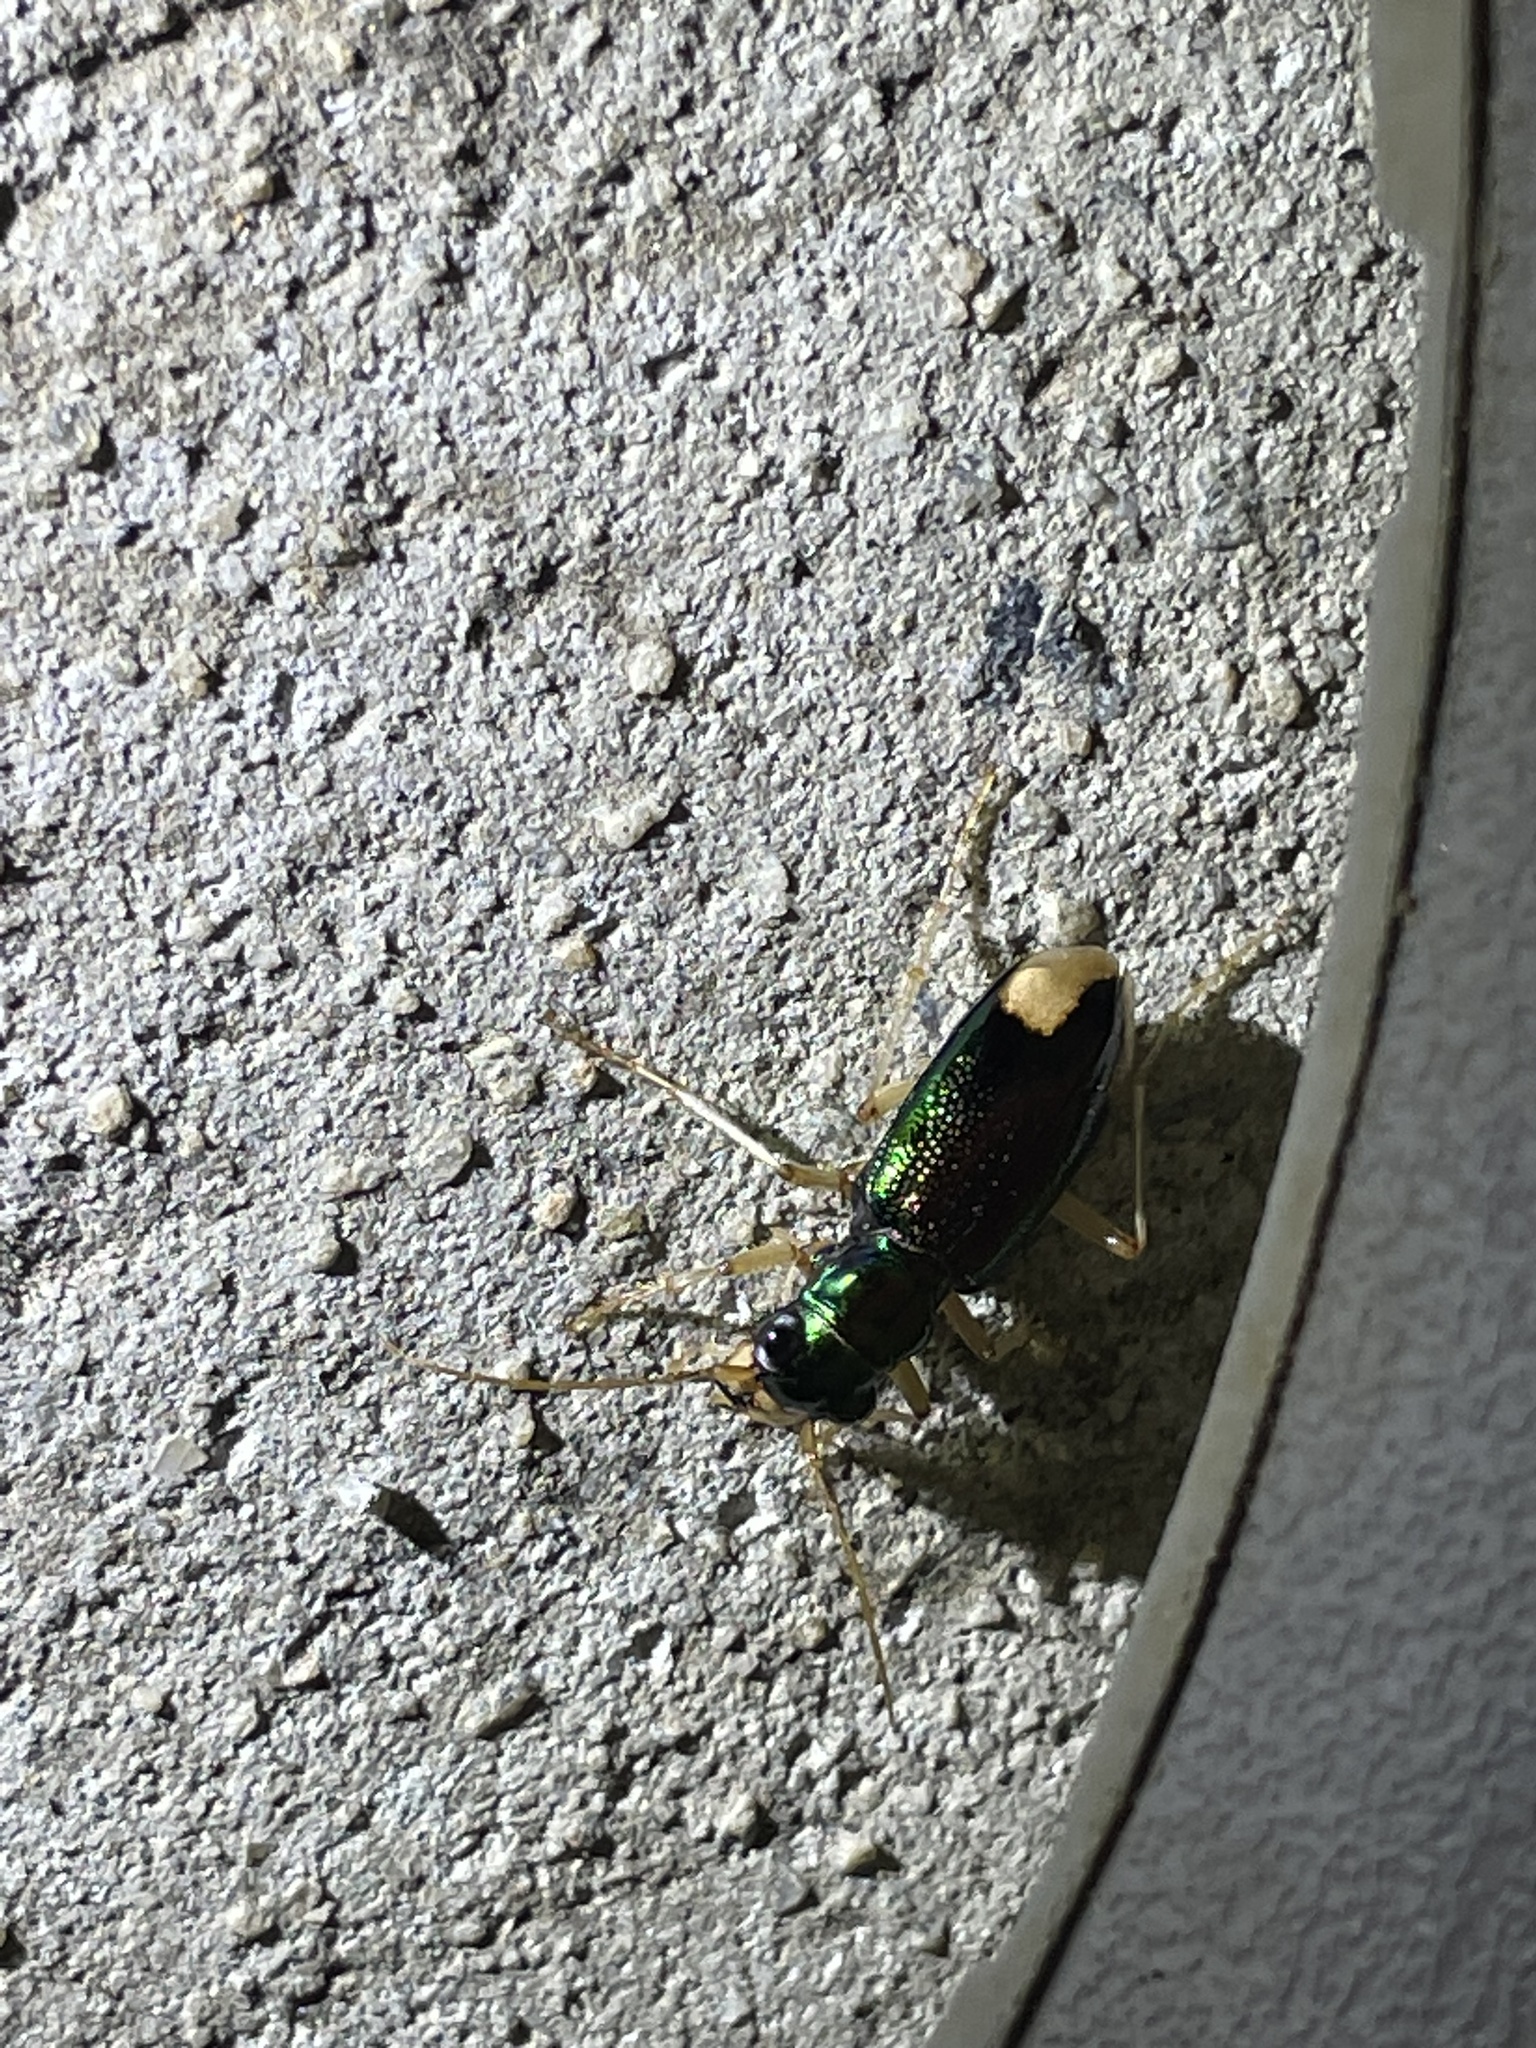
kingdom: Animalia
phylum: Arthropoda
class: Insecta
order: Coleoptera
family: Carabidae
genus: Tetracha
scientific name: Tetracha carolina
